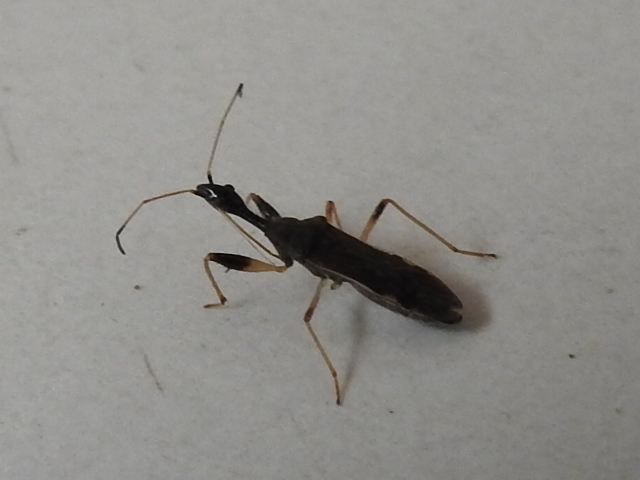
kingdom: Animalia
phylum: Arthropoda
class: Insecta
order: Hemiptera
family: Rhyparochromidae
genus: Myodocha
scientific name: Myodocha serripes
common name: Long-necked seed bug
